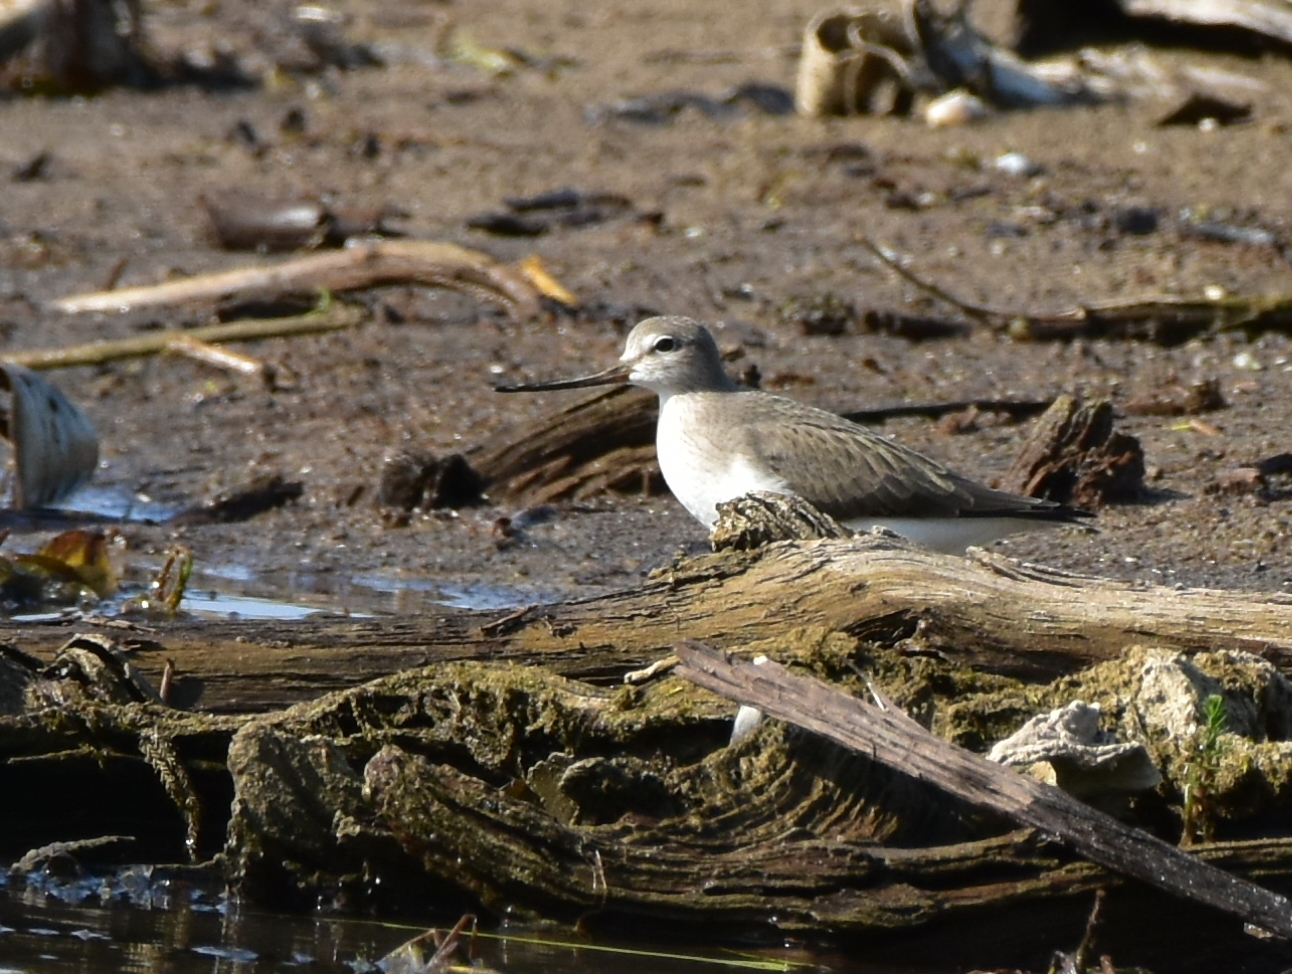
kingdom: Animalia
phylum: Chordata
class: Aves
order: Charadriiformes
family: Scolopacidae
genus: Xenus
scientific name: Xenus cinereus
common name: Terek sandpiper
